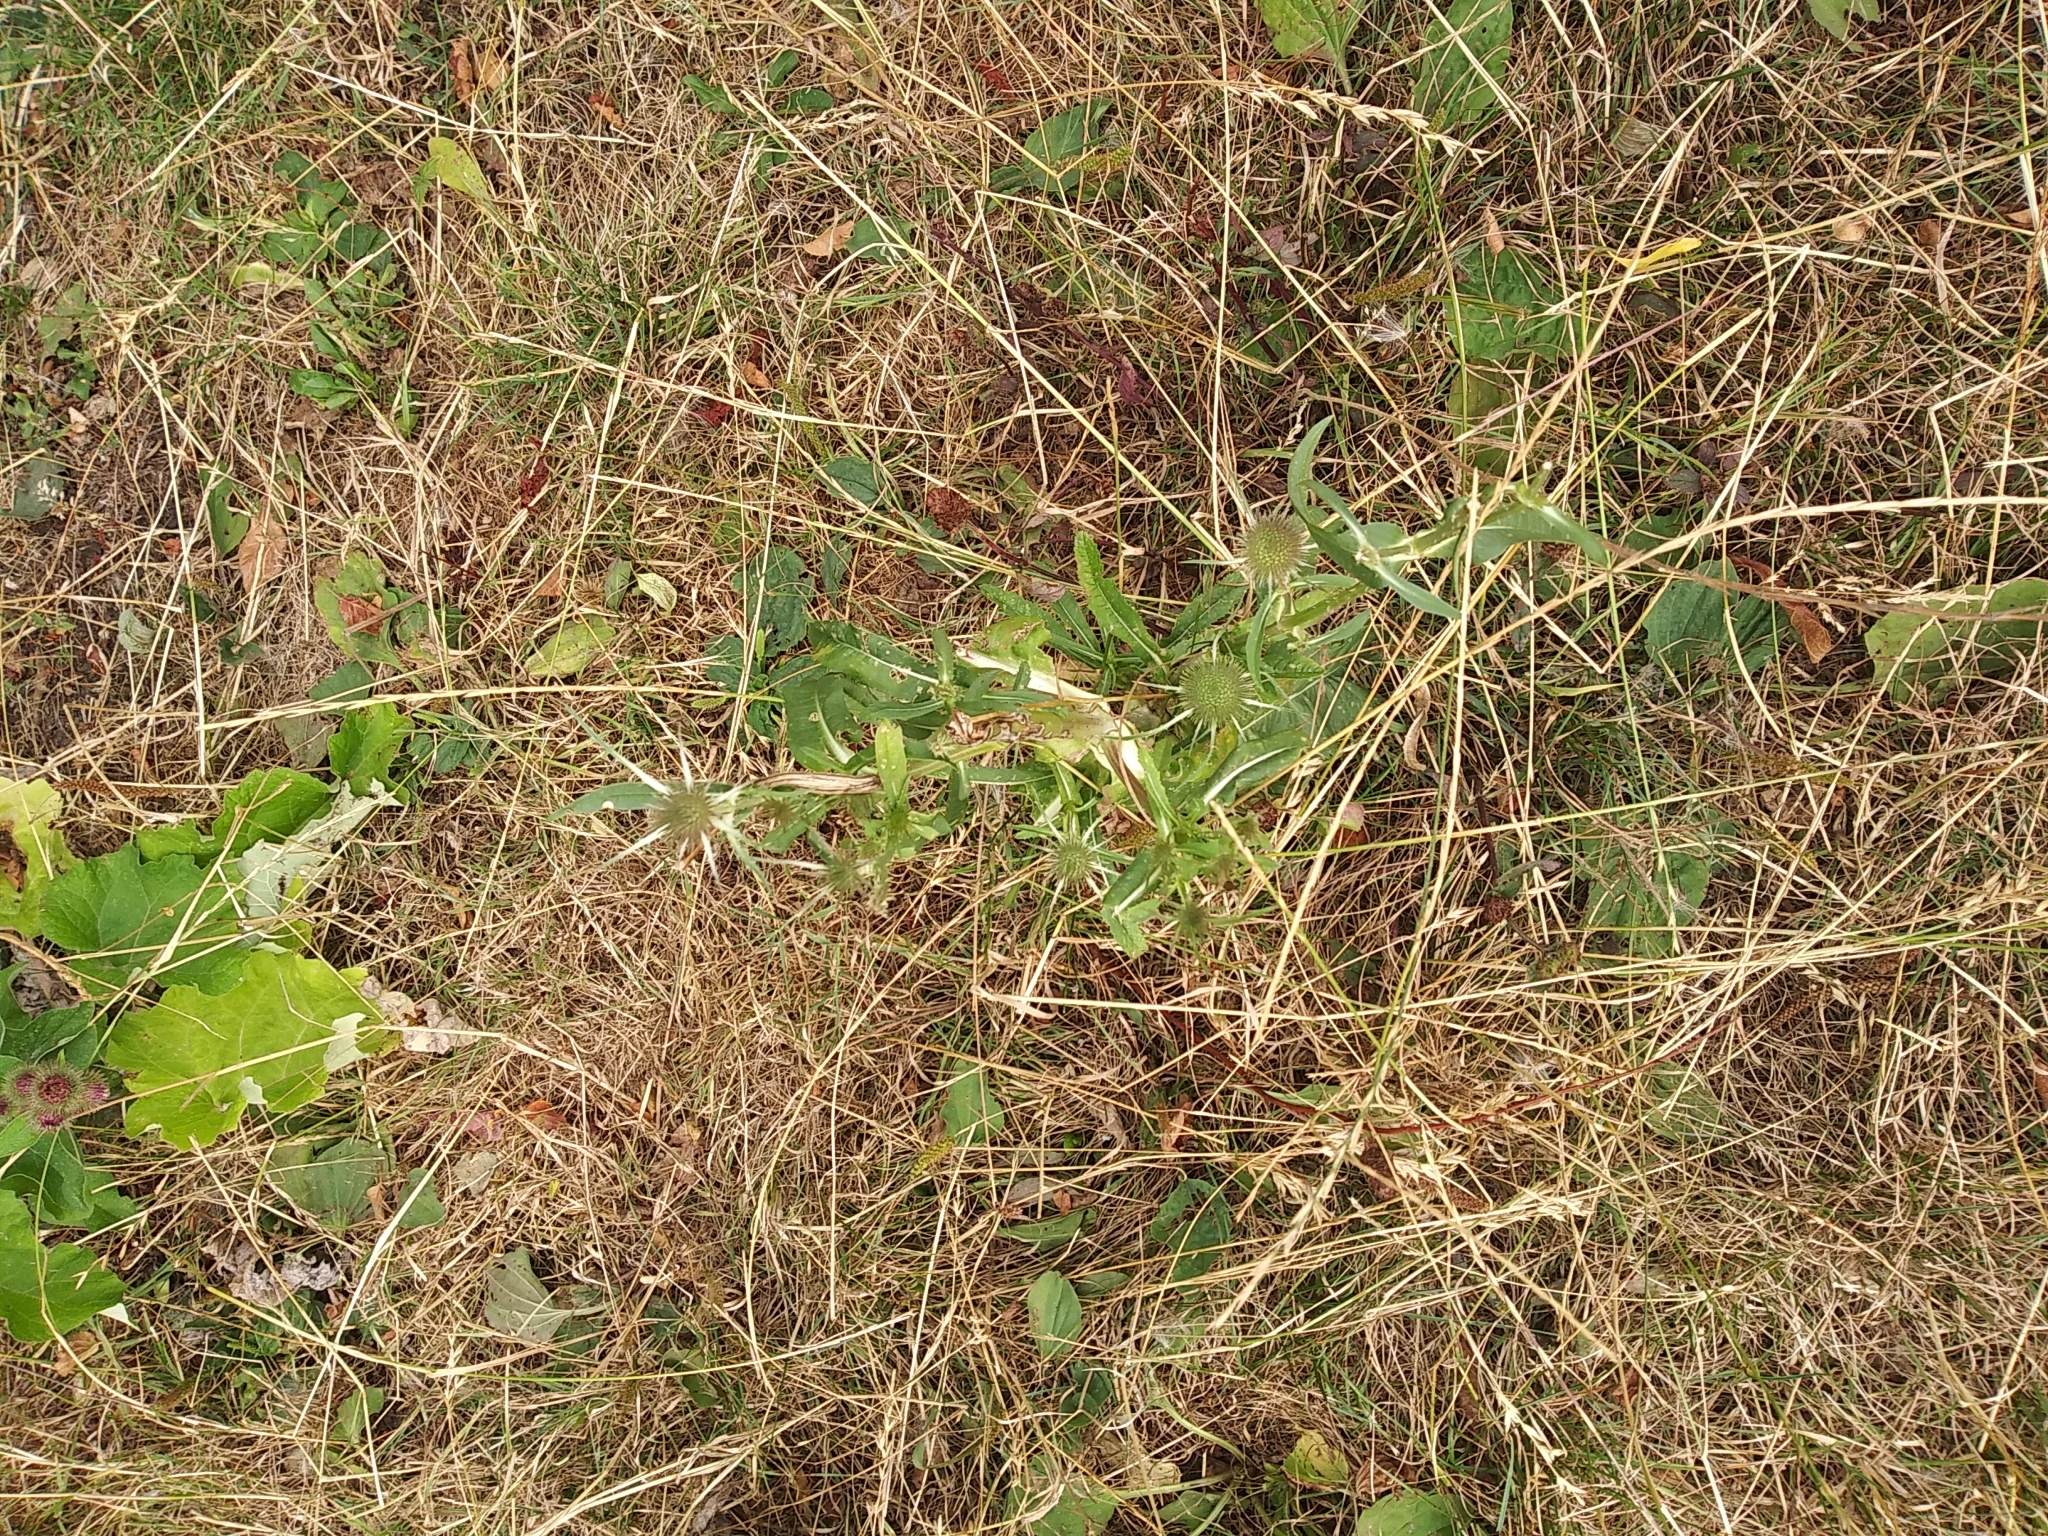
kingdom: Plantae
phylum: Tracheophyta
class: Magnoliopsida
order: Dipsacales
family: Caprifoliaceae
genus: Dipsacus
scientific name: Dipsacus fullonum
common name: Teasel
